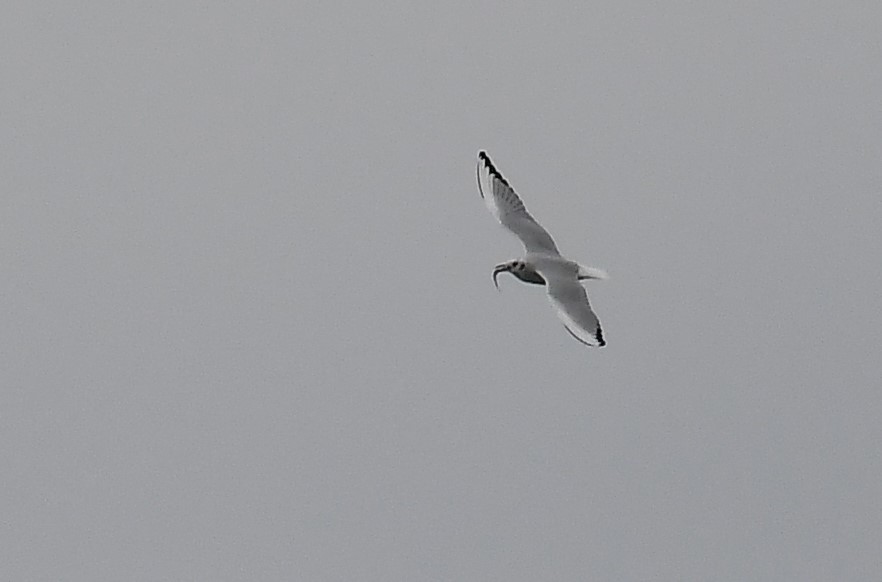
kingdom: Animalia
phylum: Chordata
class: Aves
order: Charadriiformes
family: Laridae
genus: Chroicocephalus
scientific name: Chroicocephalus philadelphia
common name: Bonaparte's gull
